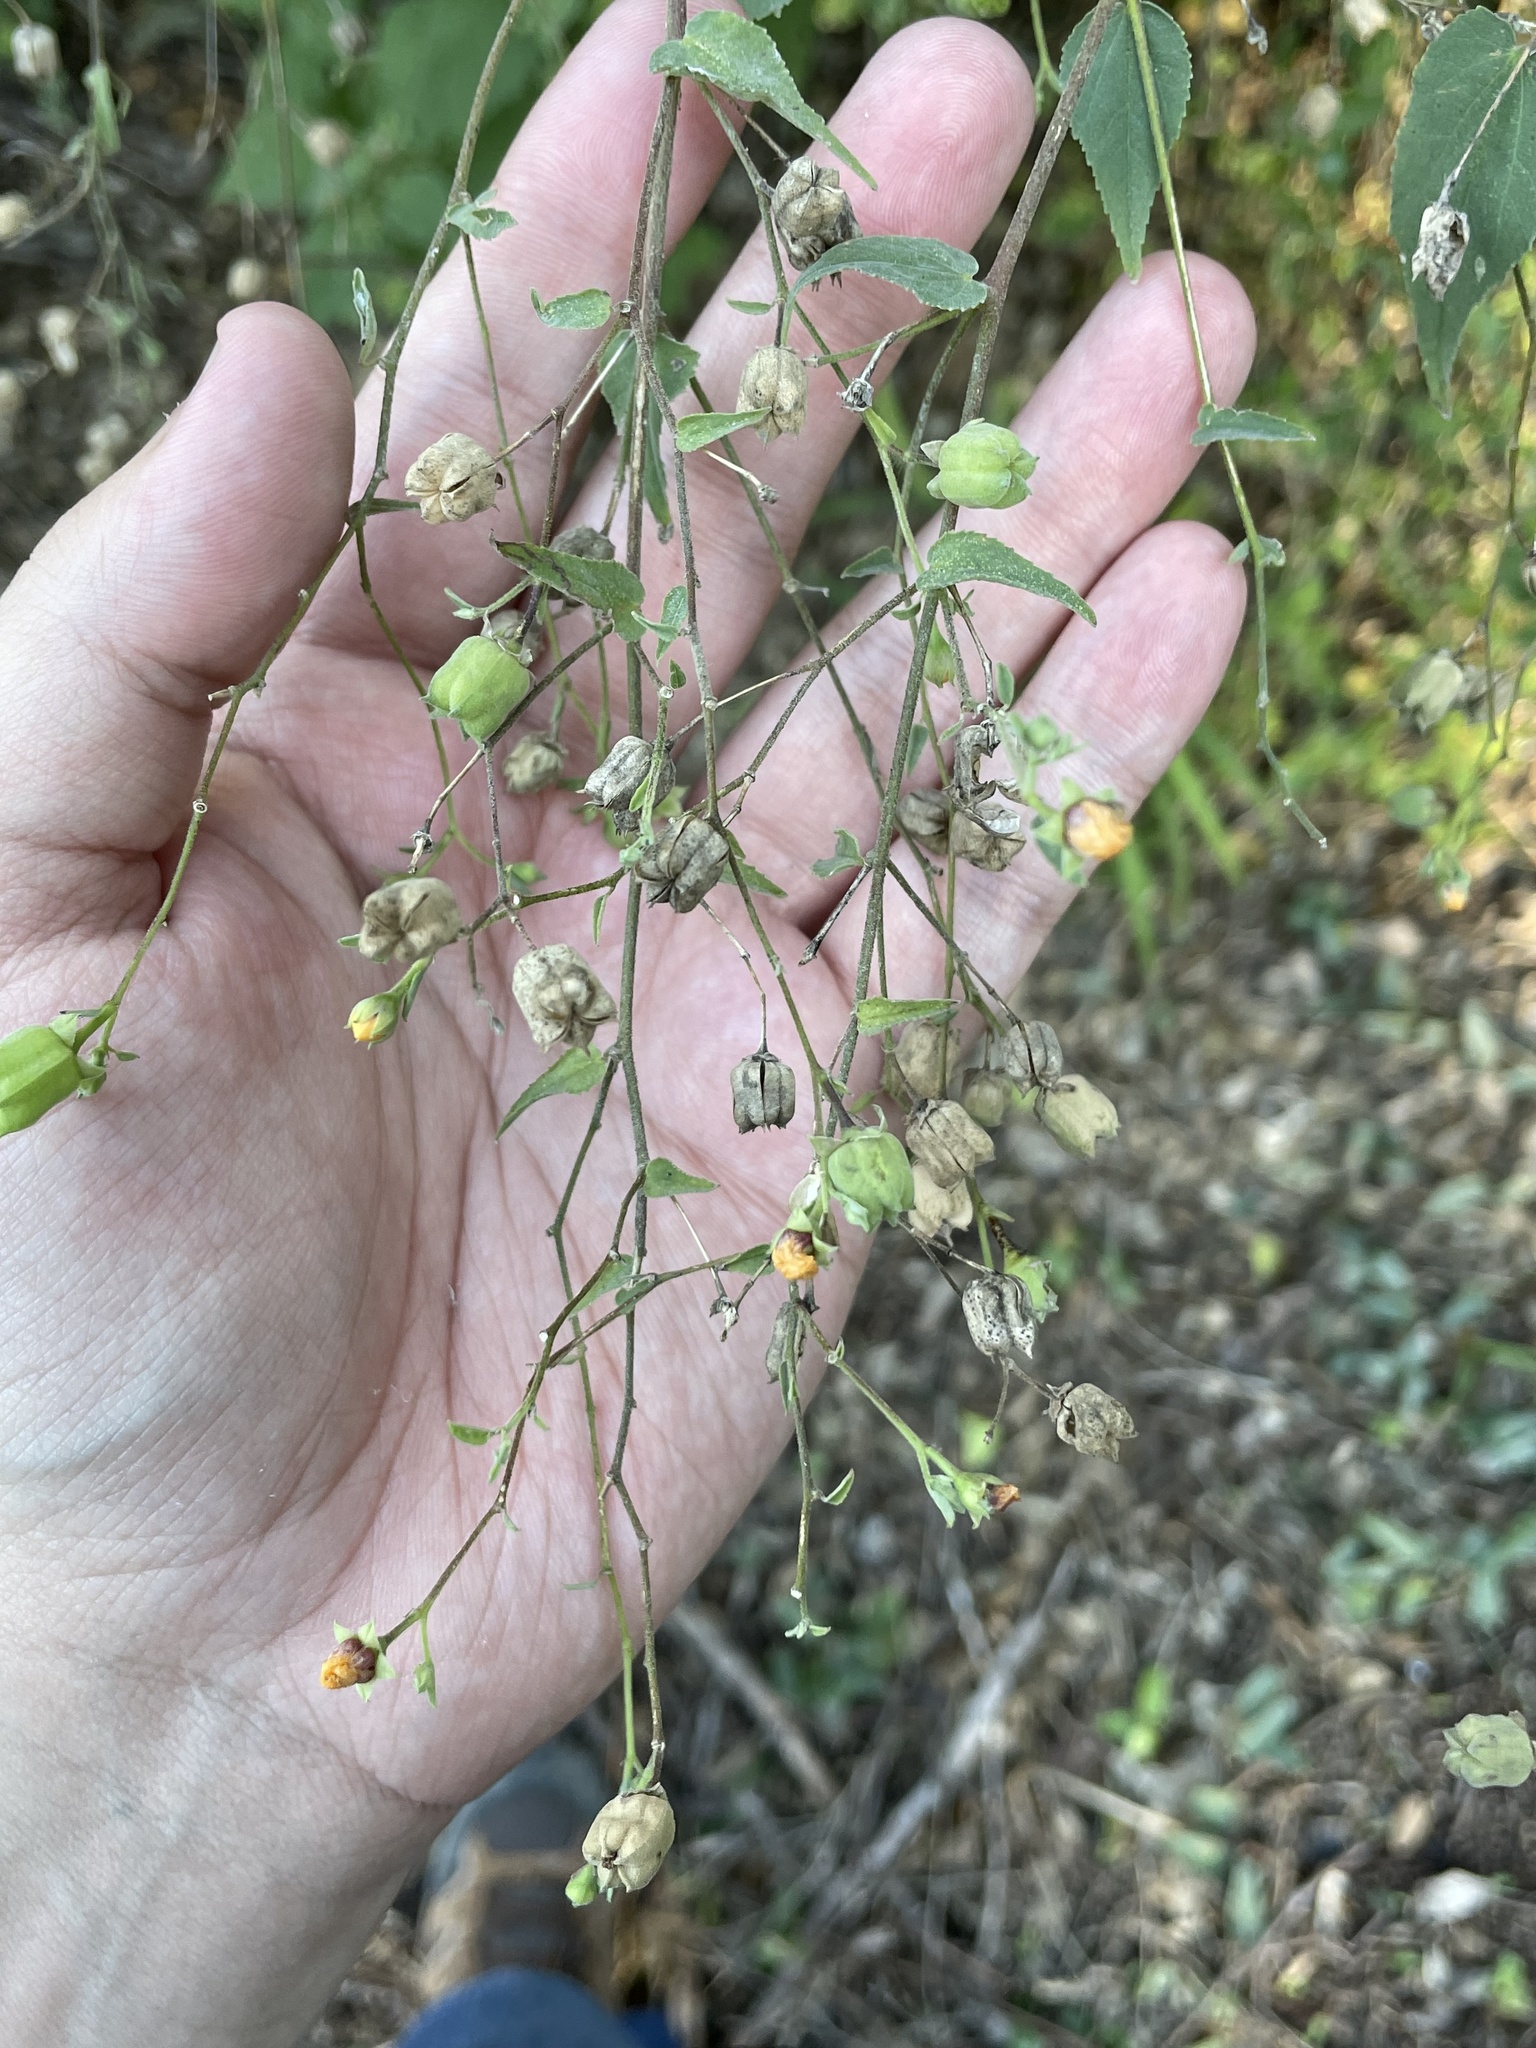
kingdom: Plantae
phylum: Tracheophyta
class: Magnoliopsida
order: Malvales
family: Malvaceae
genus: Abutilon
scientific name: Abutilon trisulcatum
